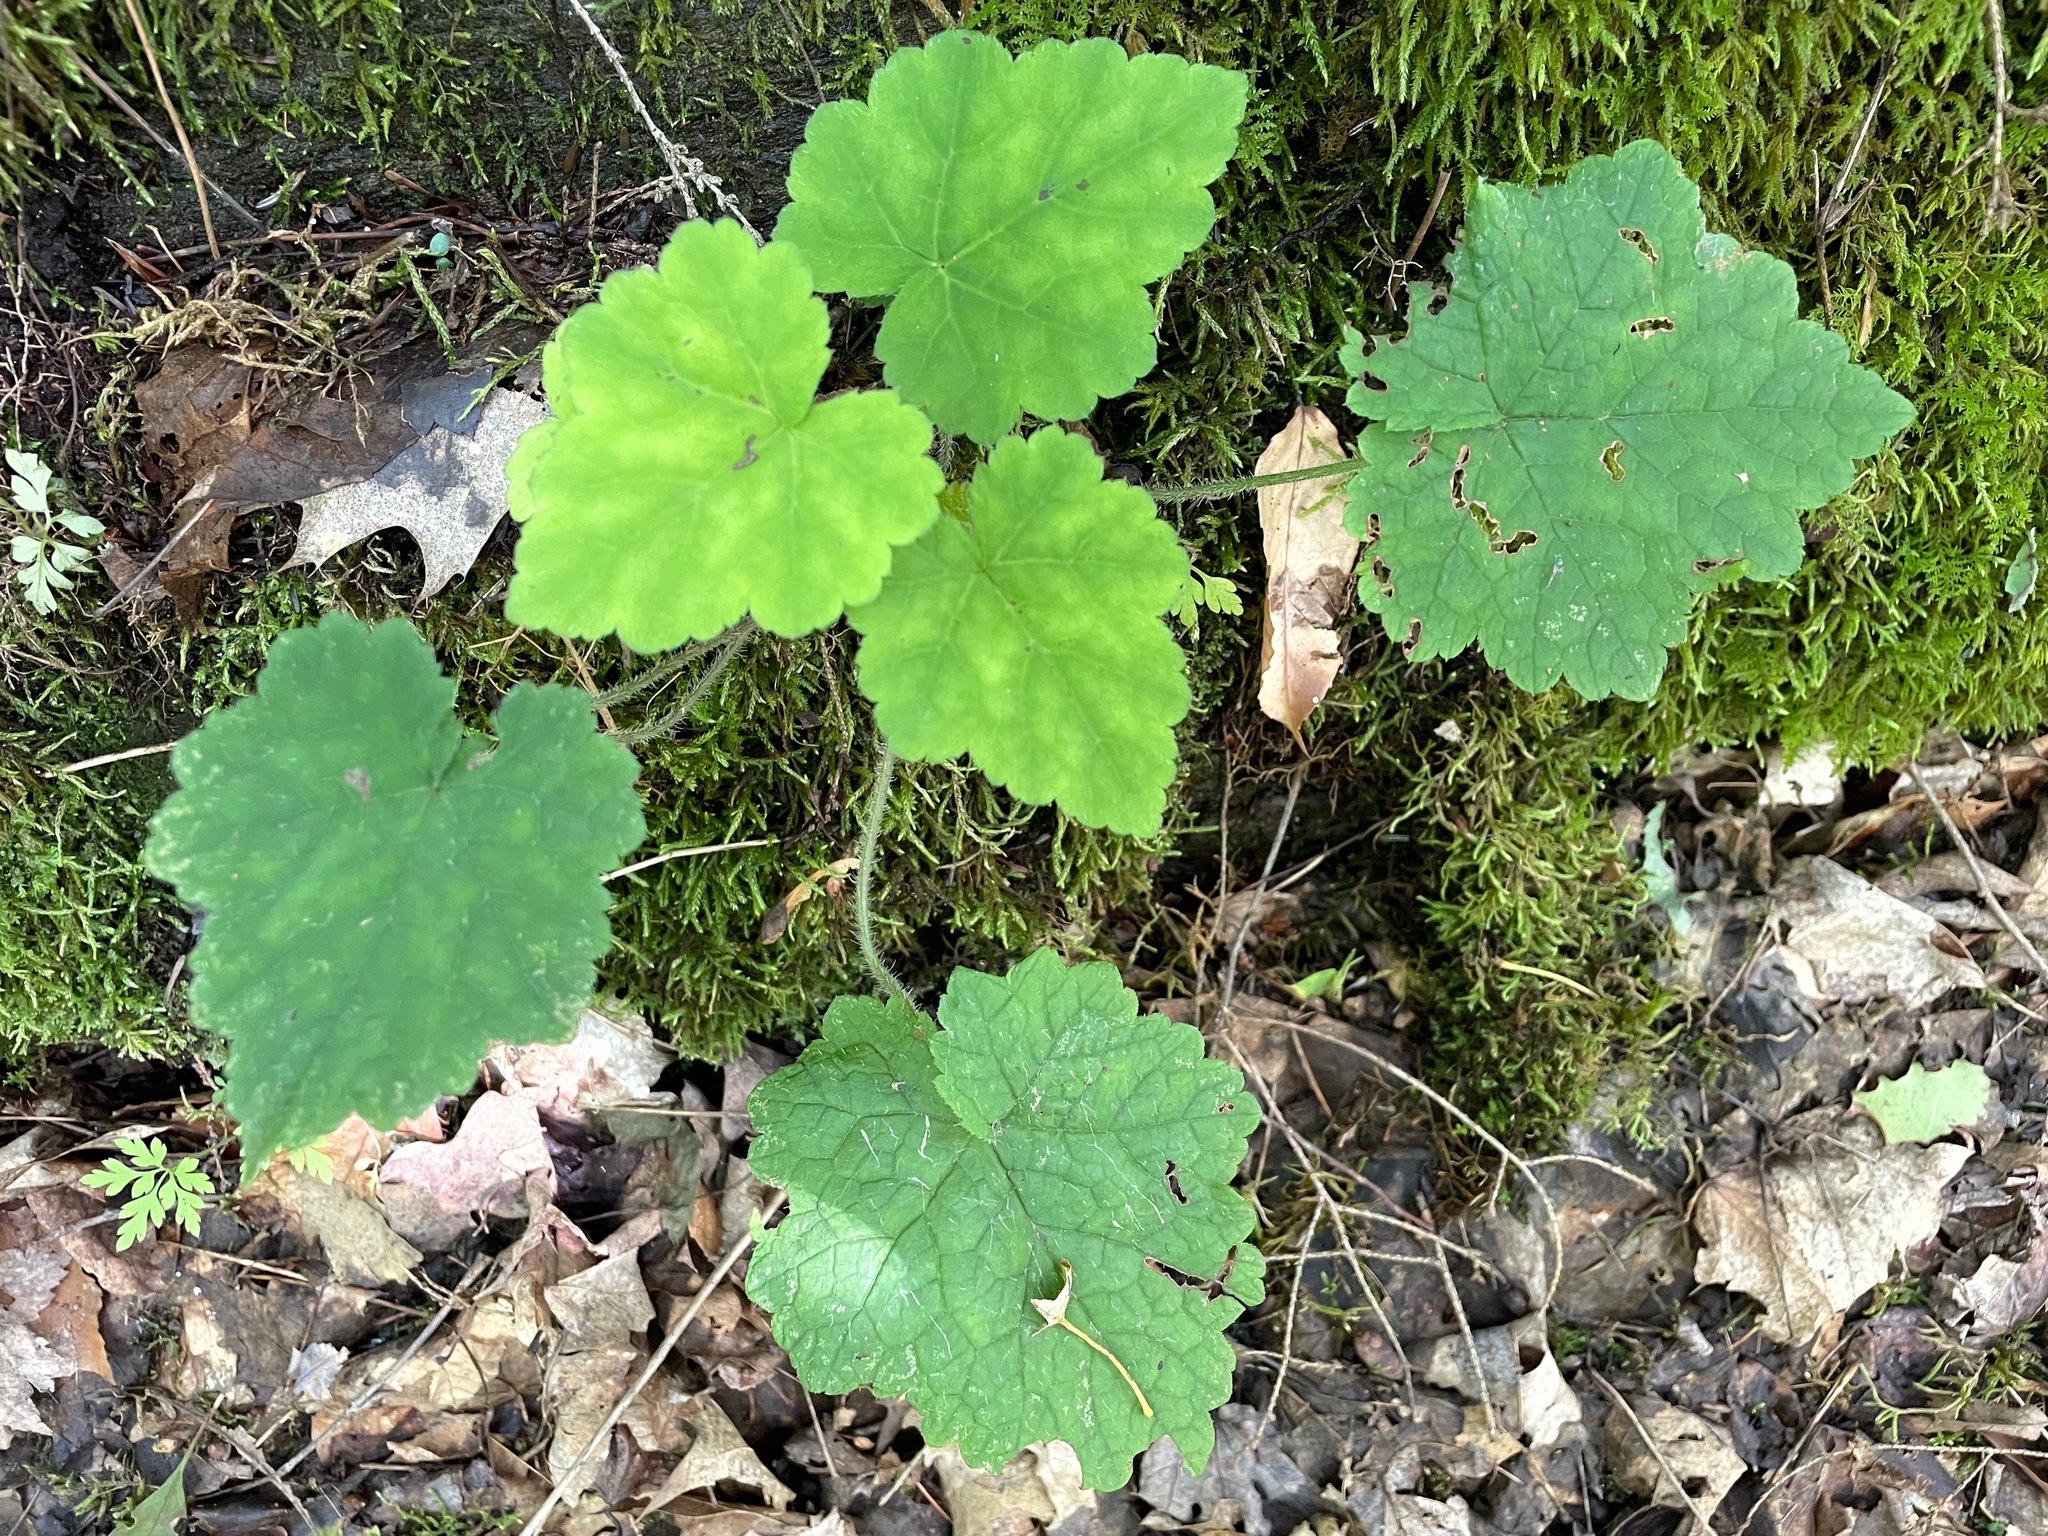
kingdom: Plantae
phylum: Tracheophyta
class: Magnoliopsida
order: Saxifragales
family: Saxifragaceae
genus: Tiarella
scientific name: Tiarella stolonifera
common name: Stoloniferous foamflower
